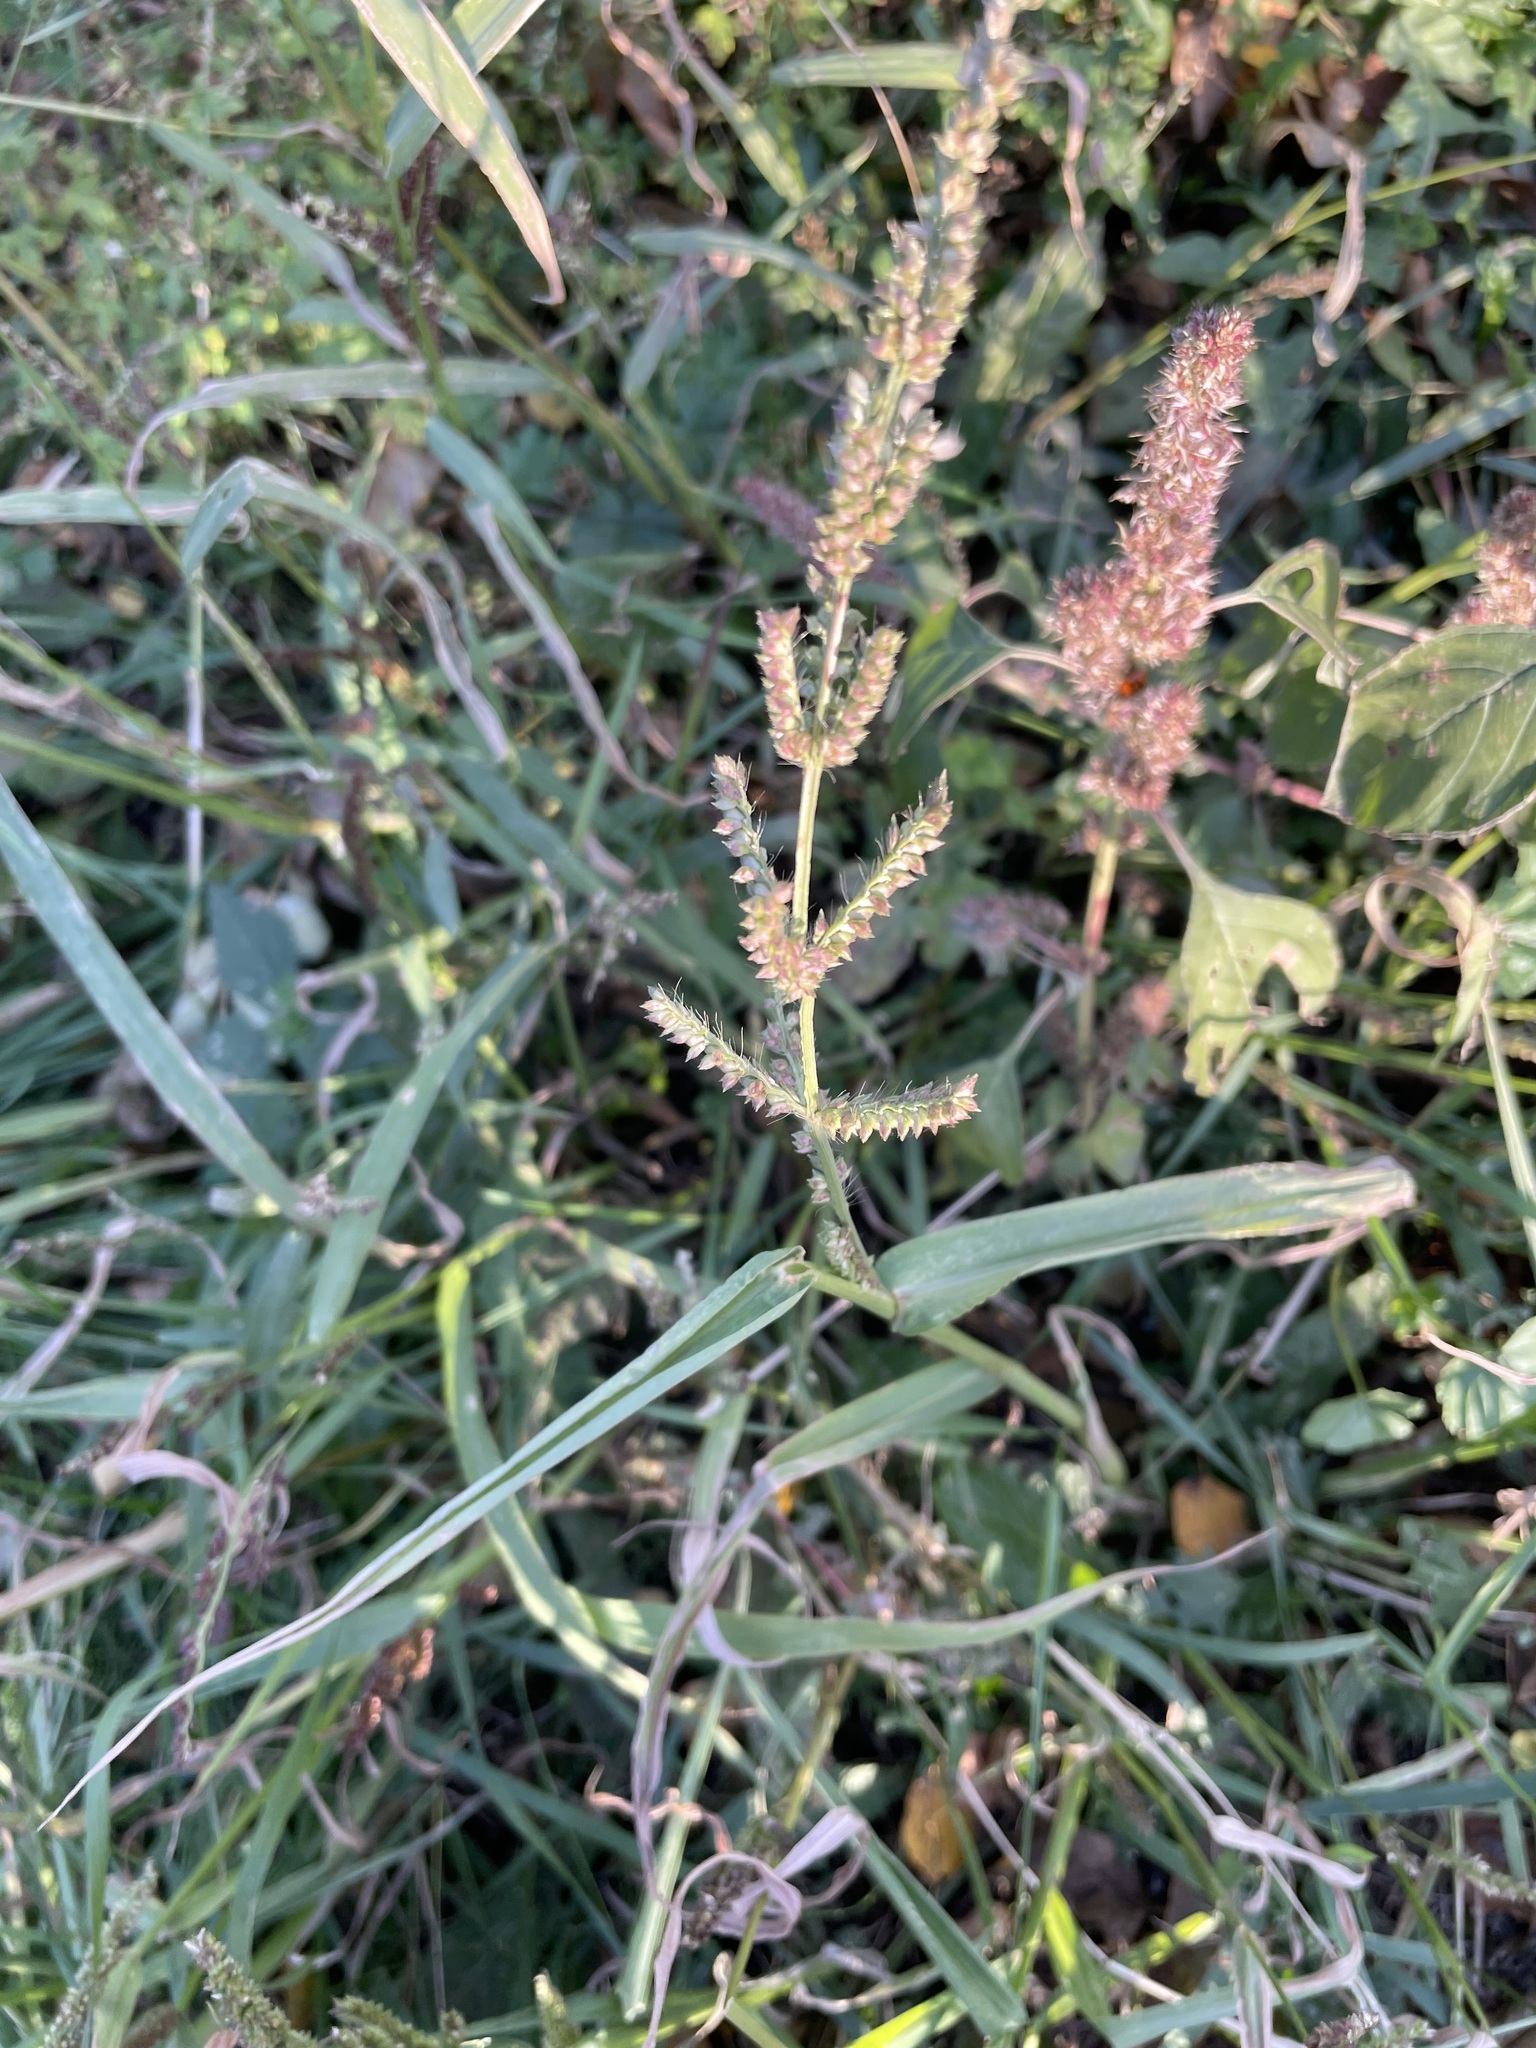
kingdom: Plantae
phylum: Tracheophyta
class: Liliopsida
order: Poales
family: Poaceae
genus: Echinochloa
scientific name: Echinochloa crus-galli
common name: Cockspur
